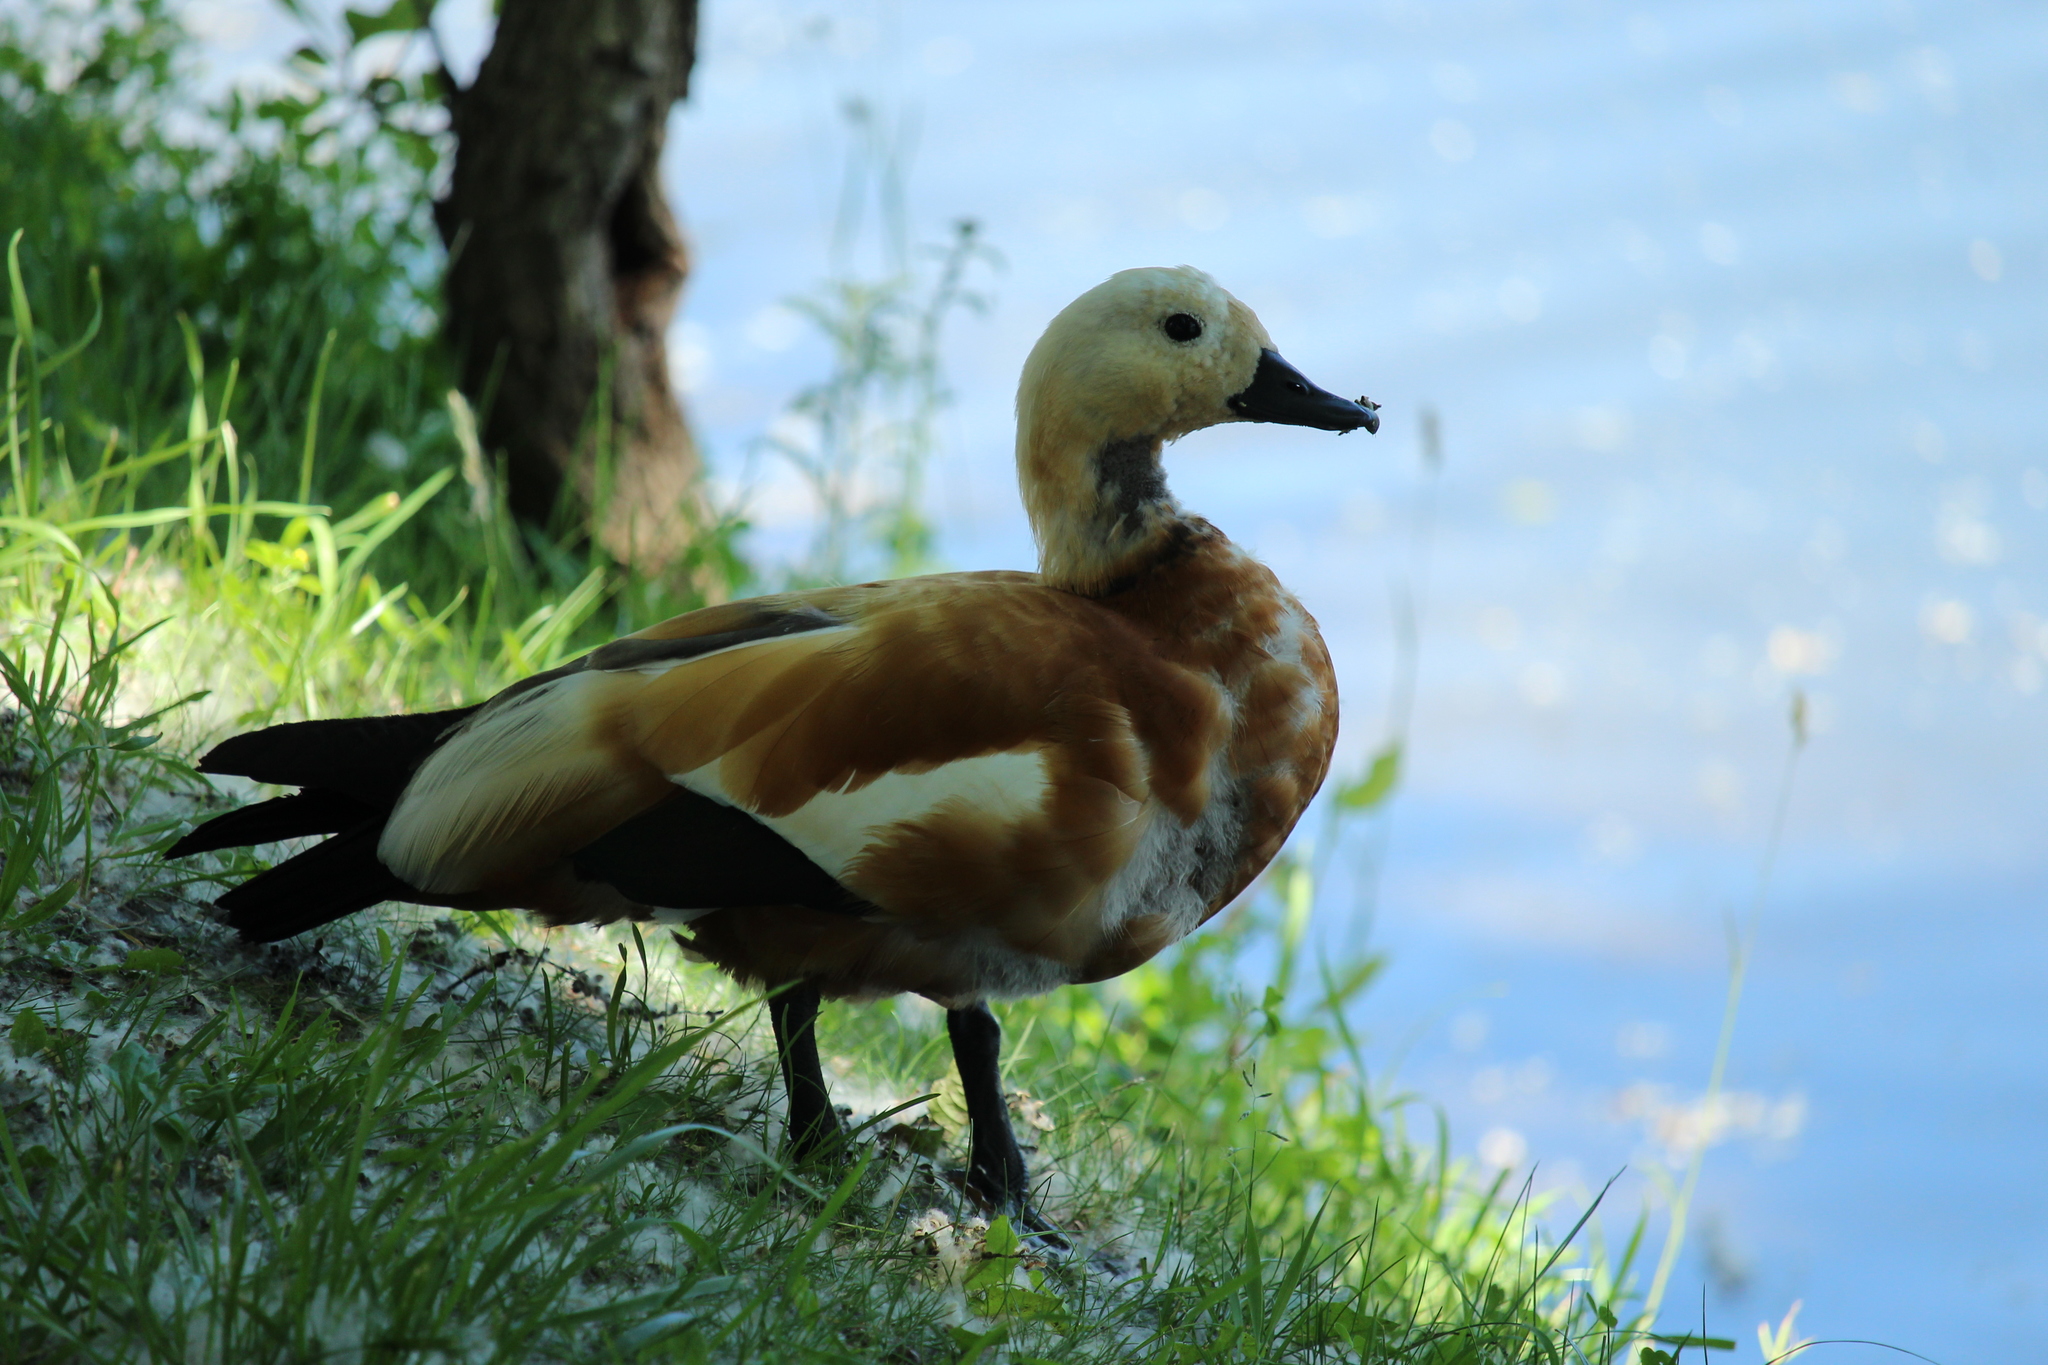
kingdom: Animalia
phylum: Chordata
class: Aves
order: Anseriformes
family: Anatidae
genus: Tadorna
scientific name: Tadorna ferruginea
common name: Ruddy shelduck
